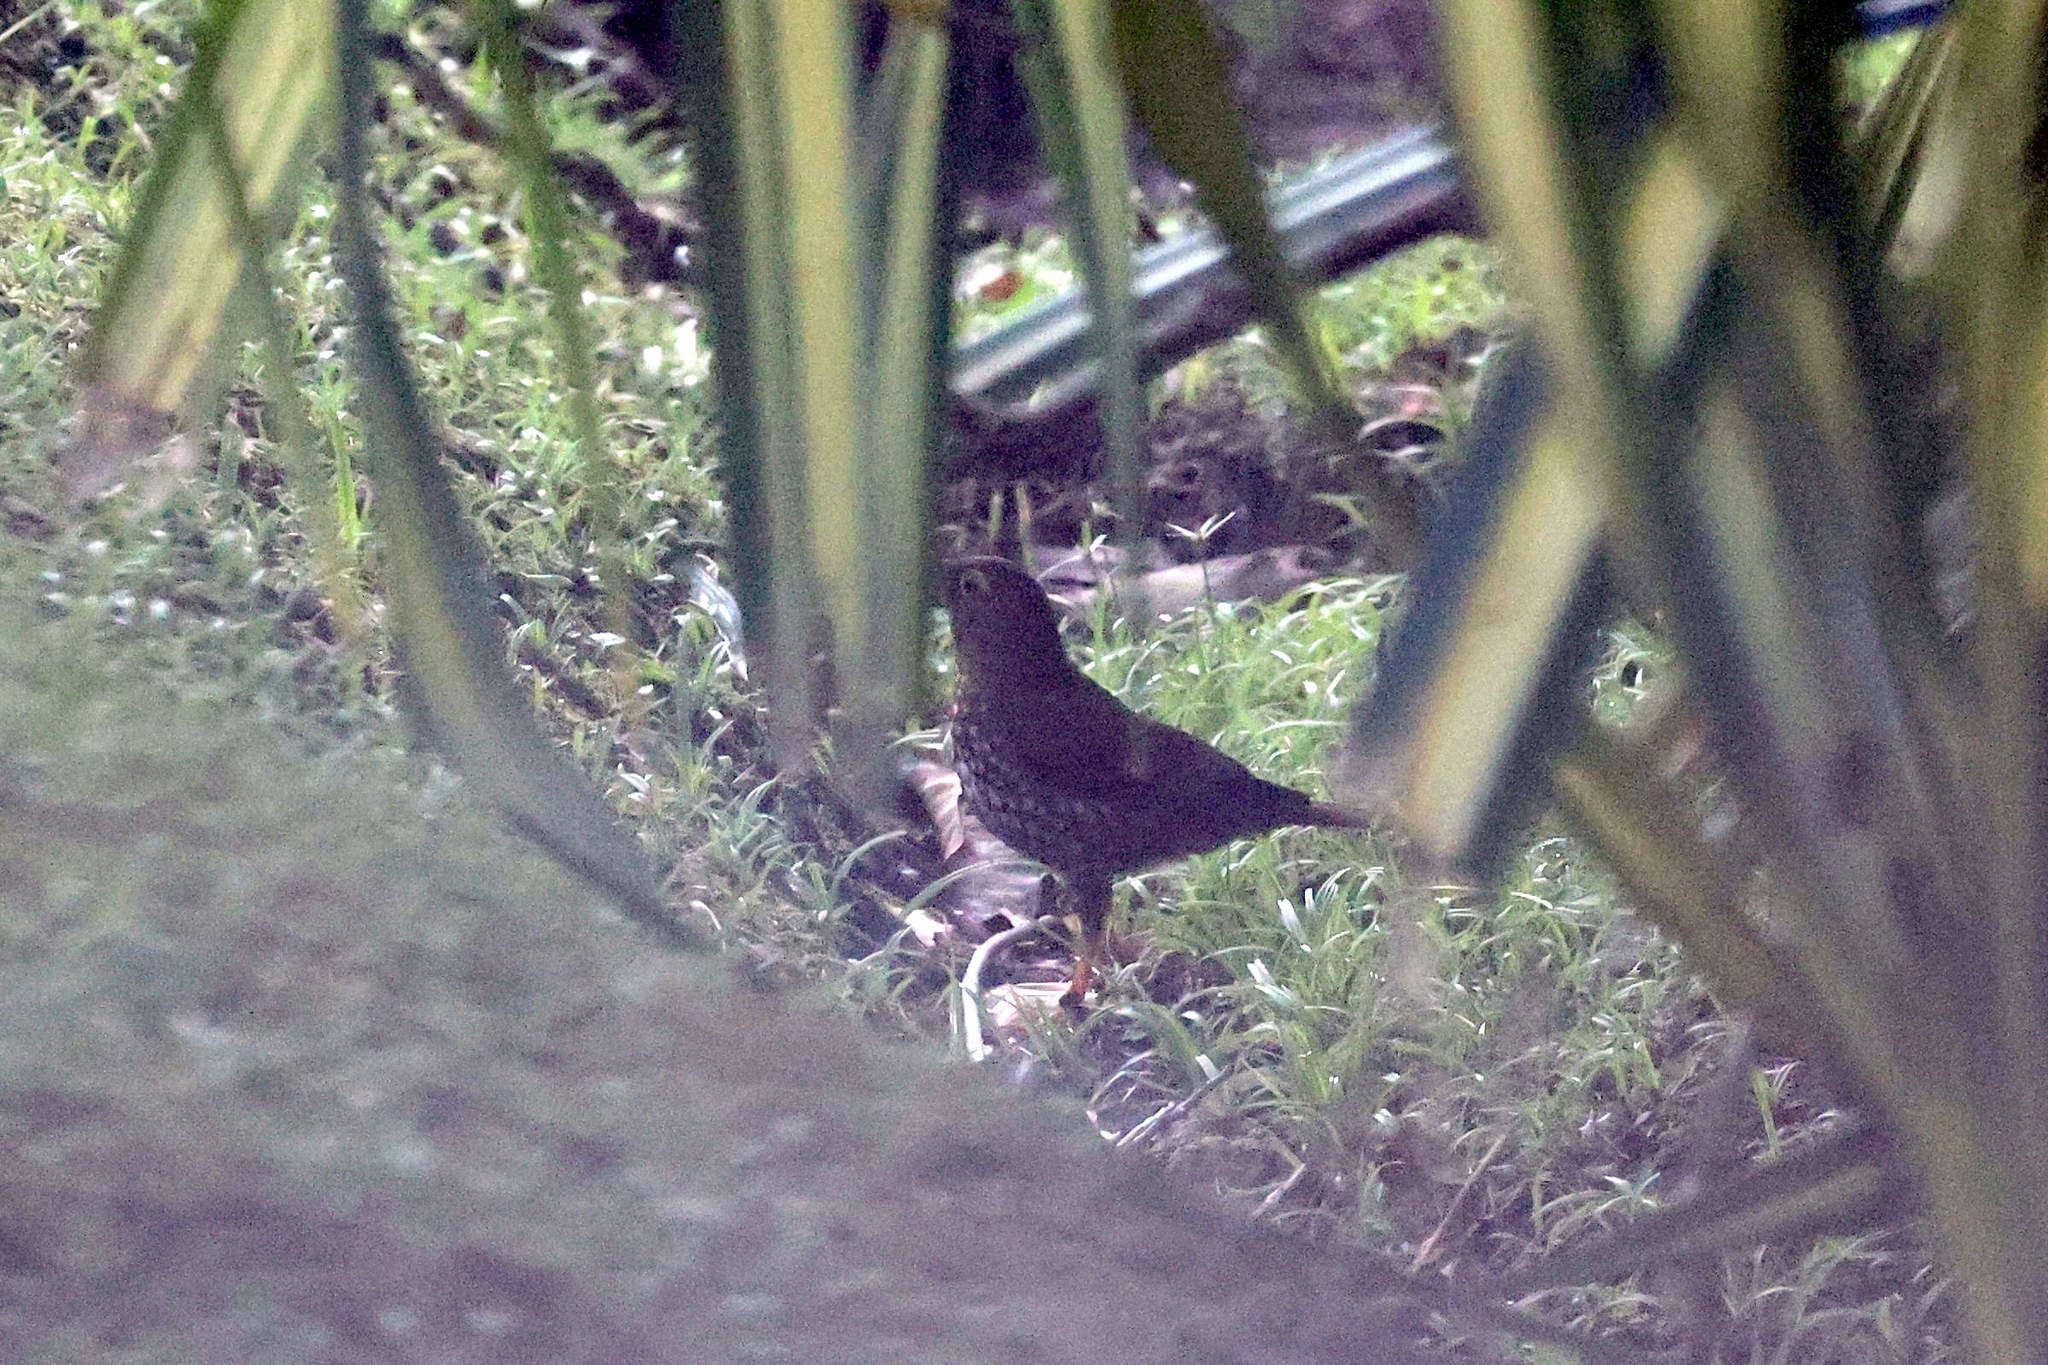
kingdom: Animalia
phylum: Chordata
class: Aves
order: Passeriformes
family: Turdidae
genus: Turdus
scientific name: Turdus lherminieri
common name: Forest thrush
